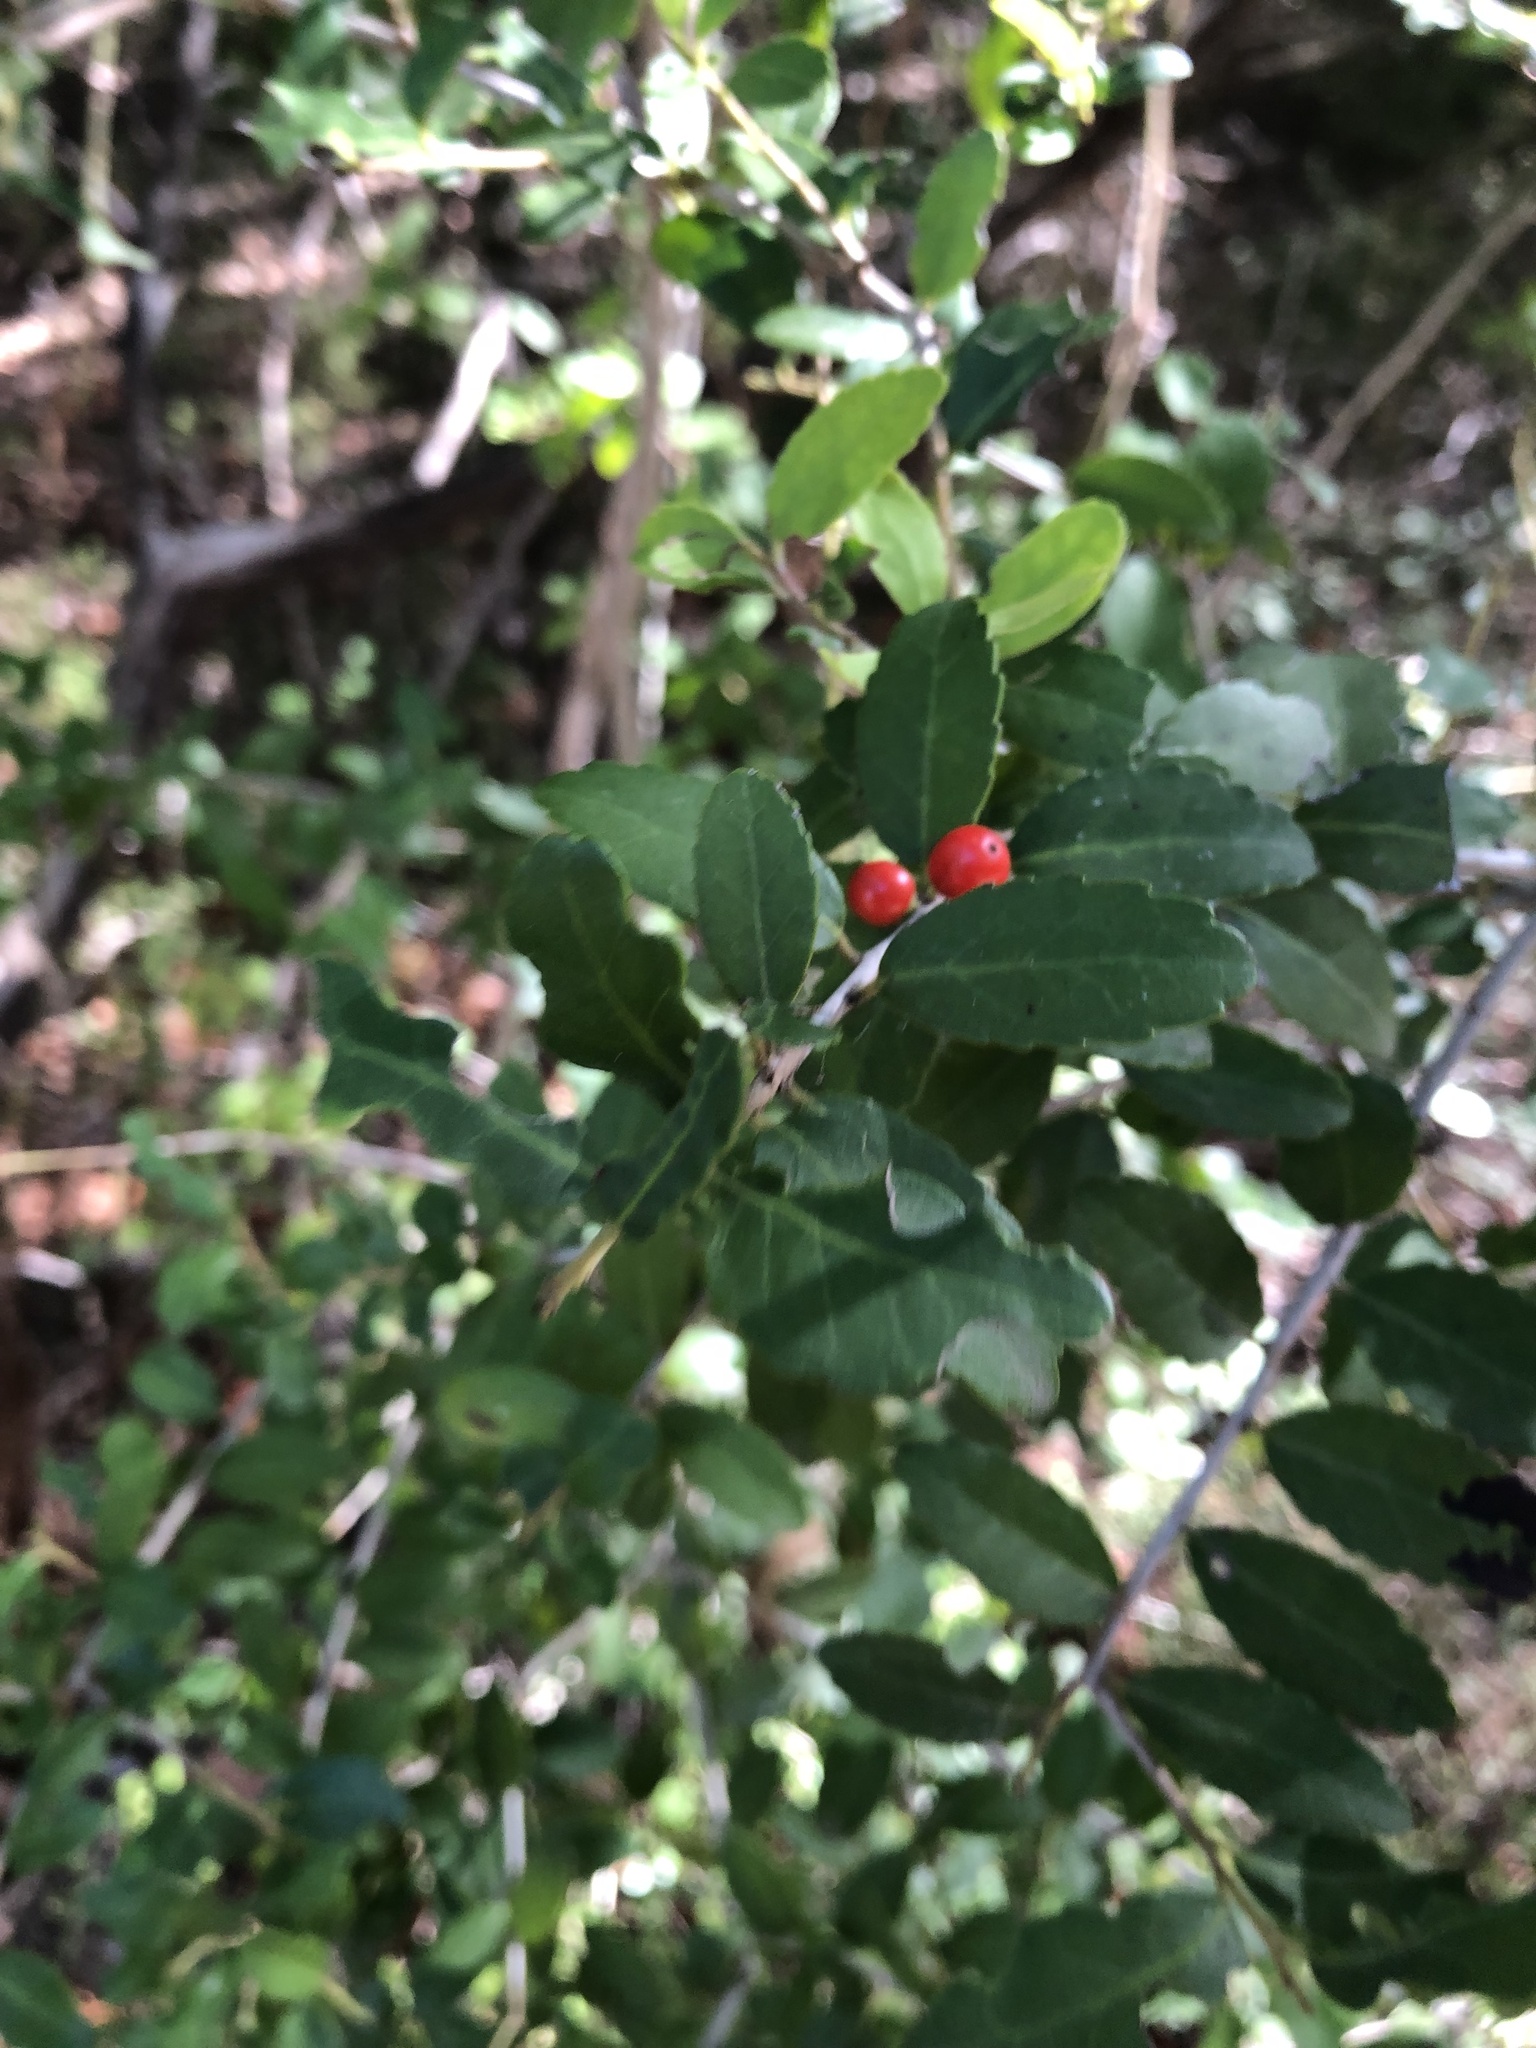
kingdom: Plantae
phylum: Tracheophyta
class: Magnoliopsida
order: Aquifoliales
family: Aquifoliaceae
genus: Ilex
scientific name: Ilex vomitoria
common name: Yaupon holly
